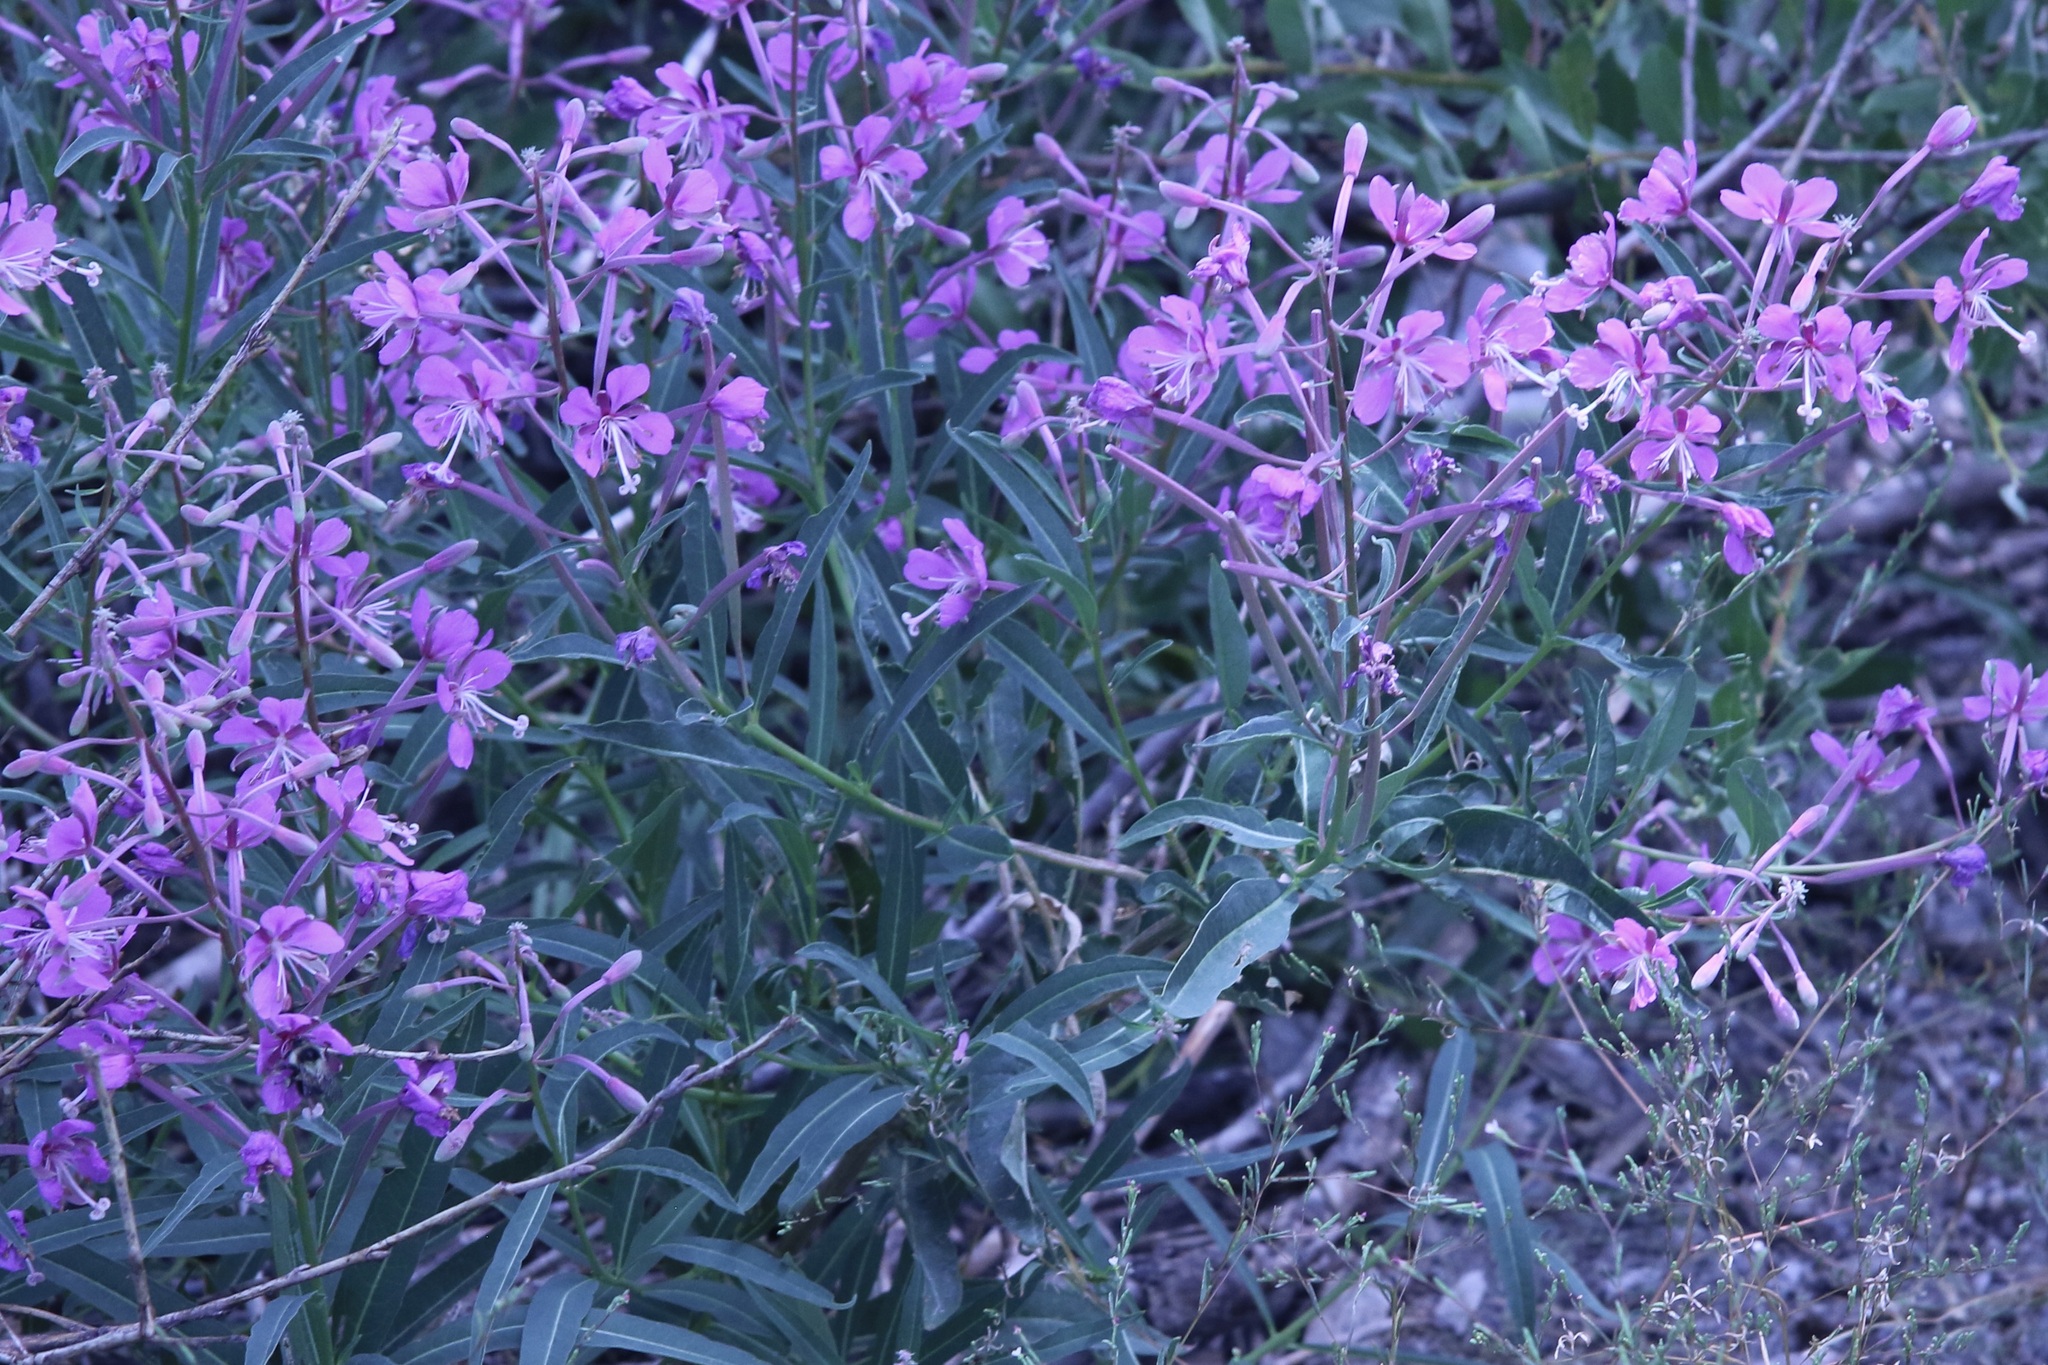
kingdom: Plantae
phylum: Tracheophyta
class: Magnoliopsida
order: Myrtales
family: Onagraceae
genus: Chamaenerion
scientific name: Chamaenerion angustifolium
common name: Fireweed
